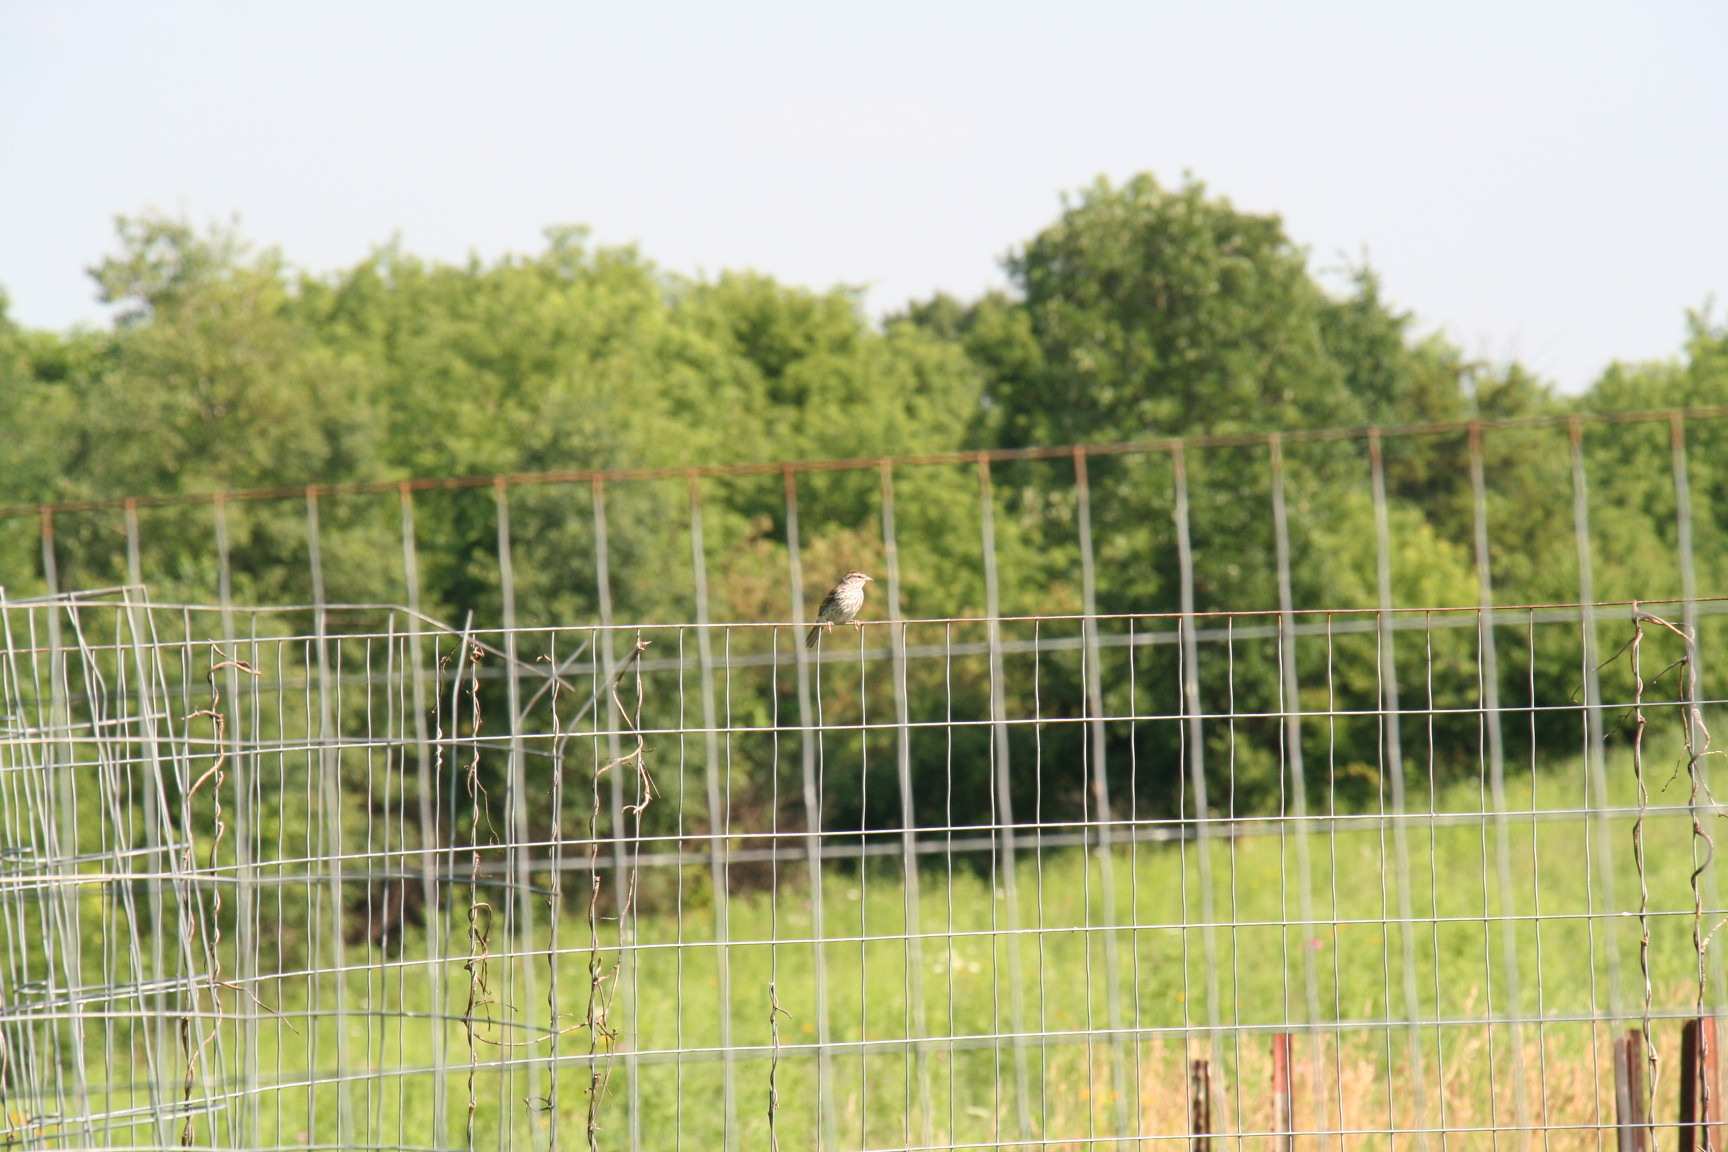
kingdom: Animalia
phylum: Chordata
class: Aves
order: Passeriformes
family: Passerellidae
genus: Spizella
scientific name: Spizella passerina
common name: Chipping sparrow
